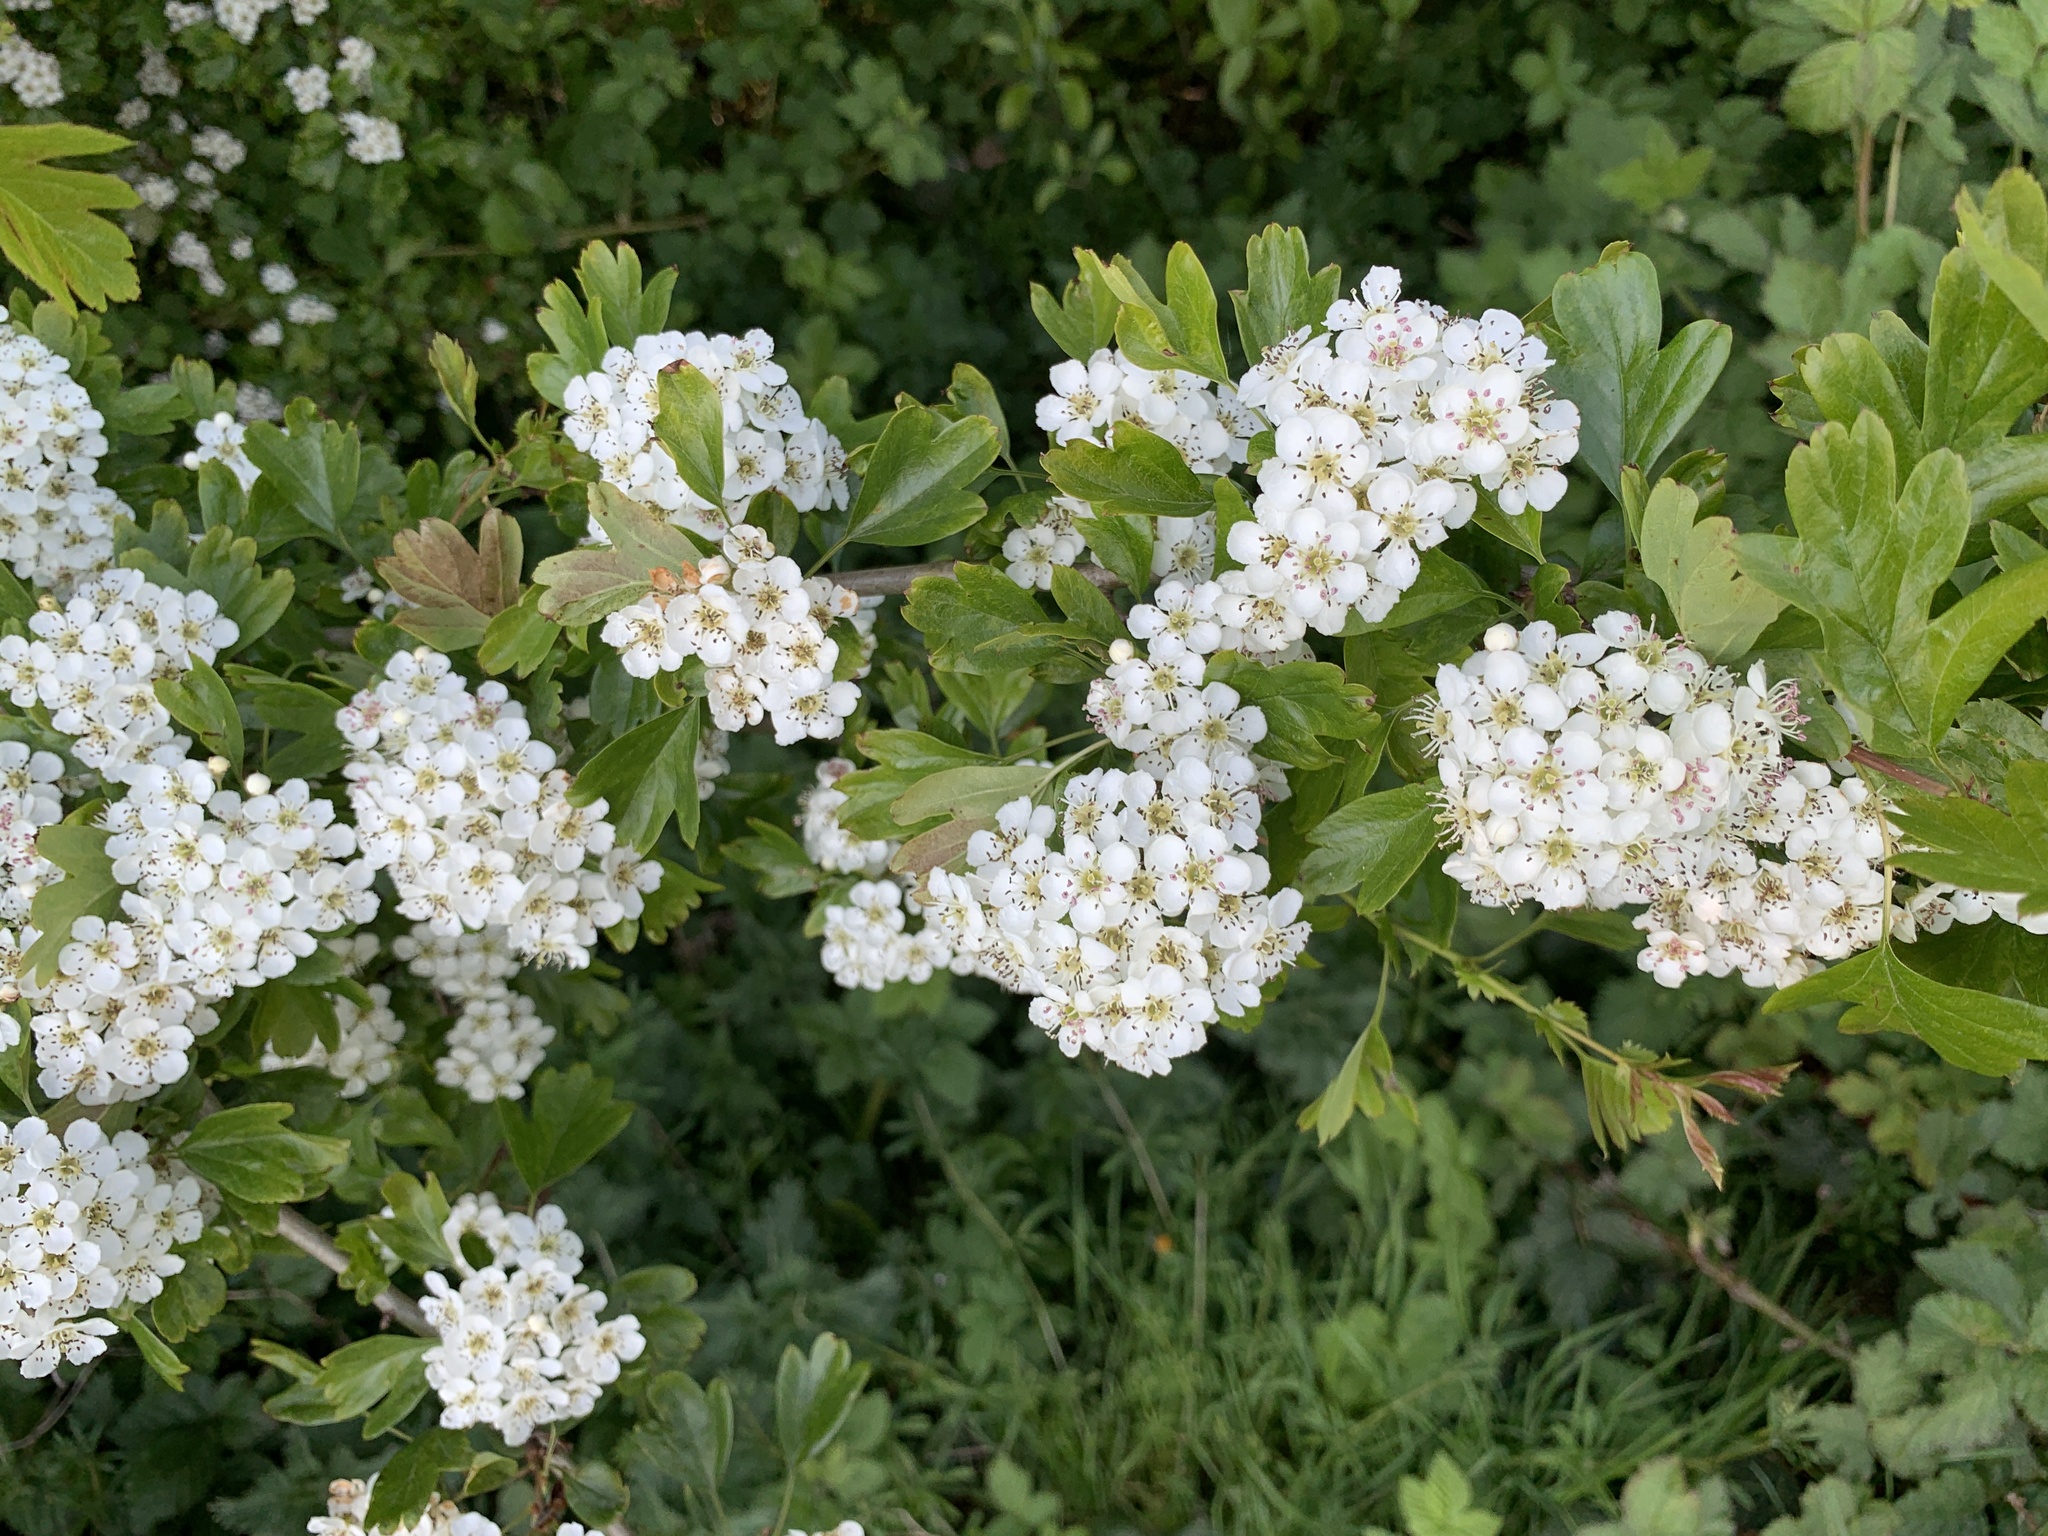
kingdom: Plantae
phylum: Tracheophyta
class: Magnoliopsida
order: Rosales
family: Rosaceae
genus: Crataegus
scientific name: Crataegus monogyna
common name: Hawthorn
